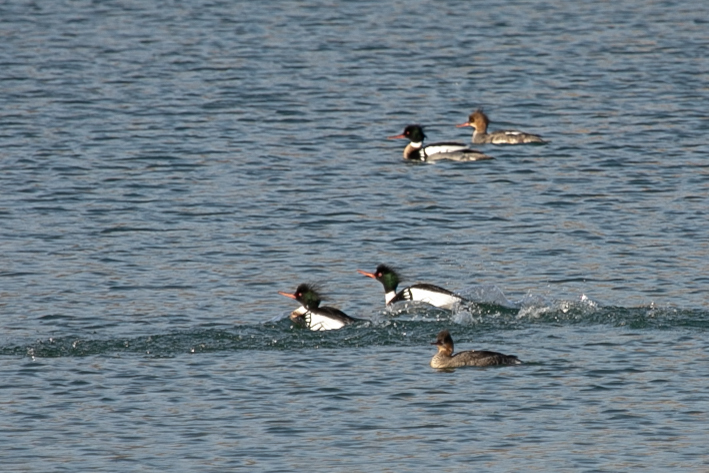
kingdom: Animalia
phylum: Chordata
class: Aves
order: Anseriformes
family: Anatidae
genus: Mergus
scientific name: Mergus serrator
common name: Red-breasted merganser
